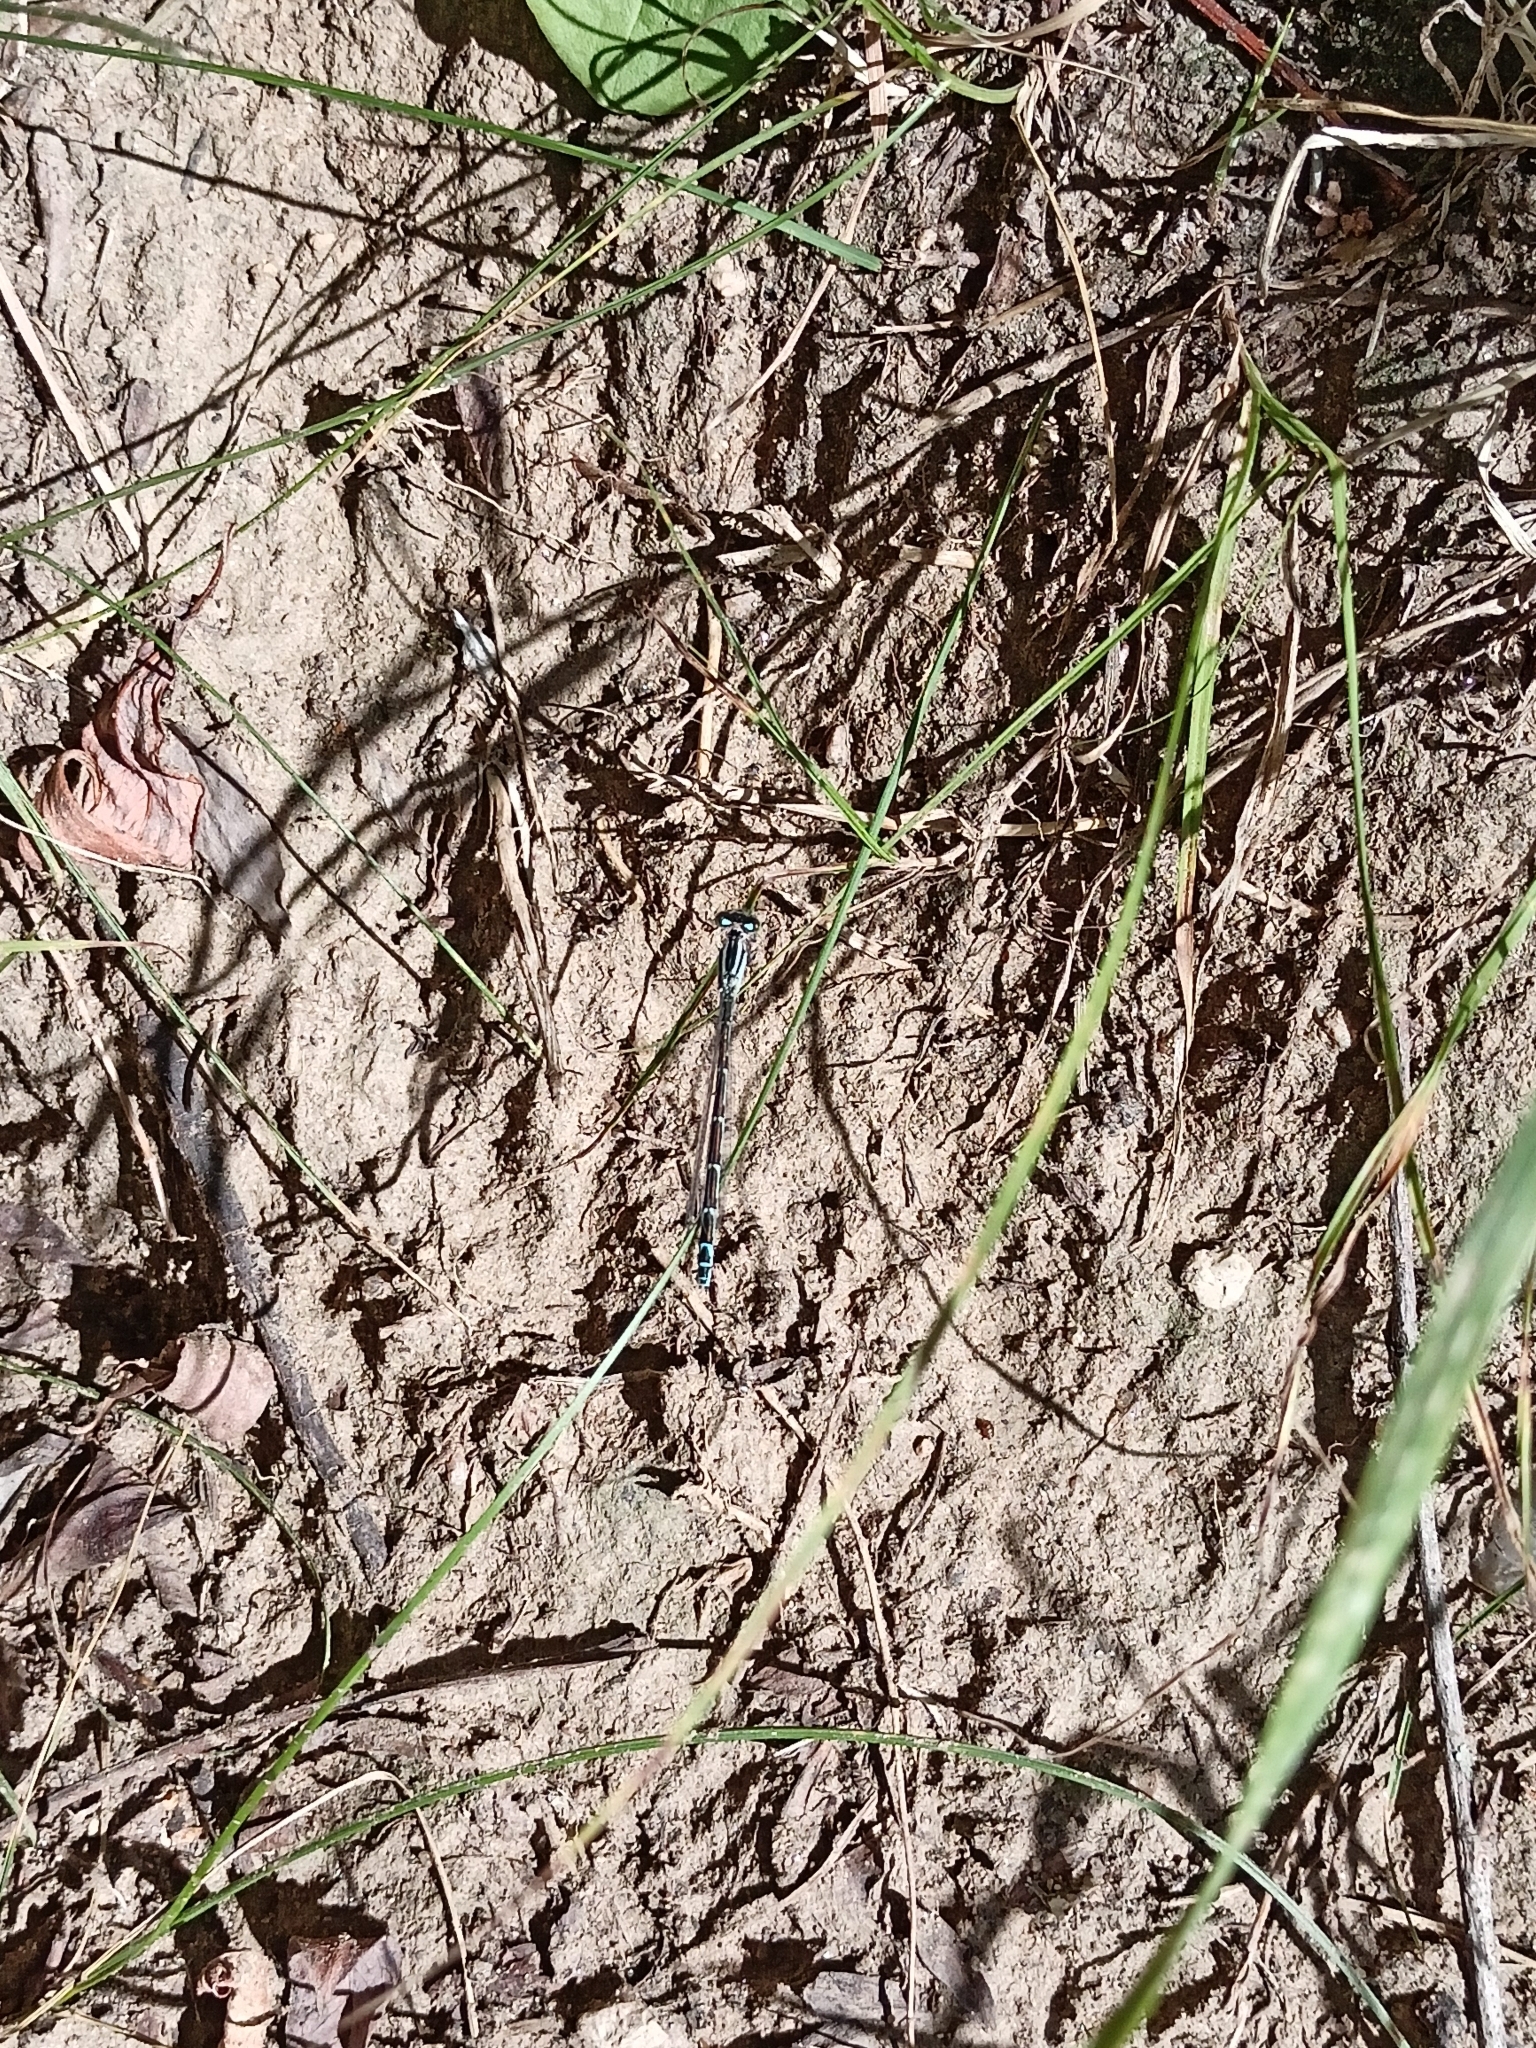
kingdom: Animalia
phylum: Arthropoda
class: Insecta
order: Odonata
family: Coenagrionidae
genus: Enallagma
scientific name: Enallagma cyathigerum
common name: Common blue damselfly
